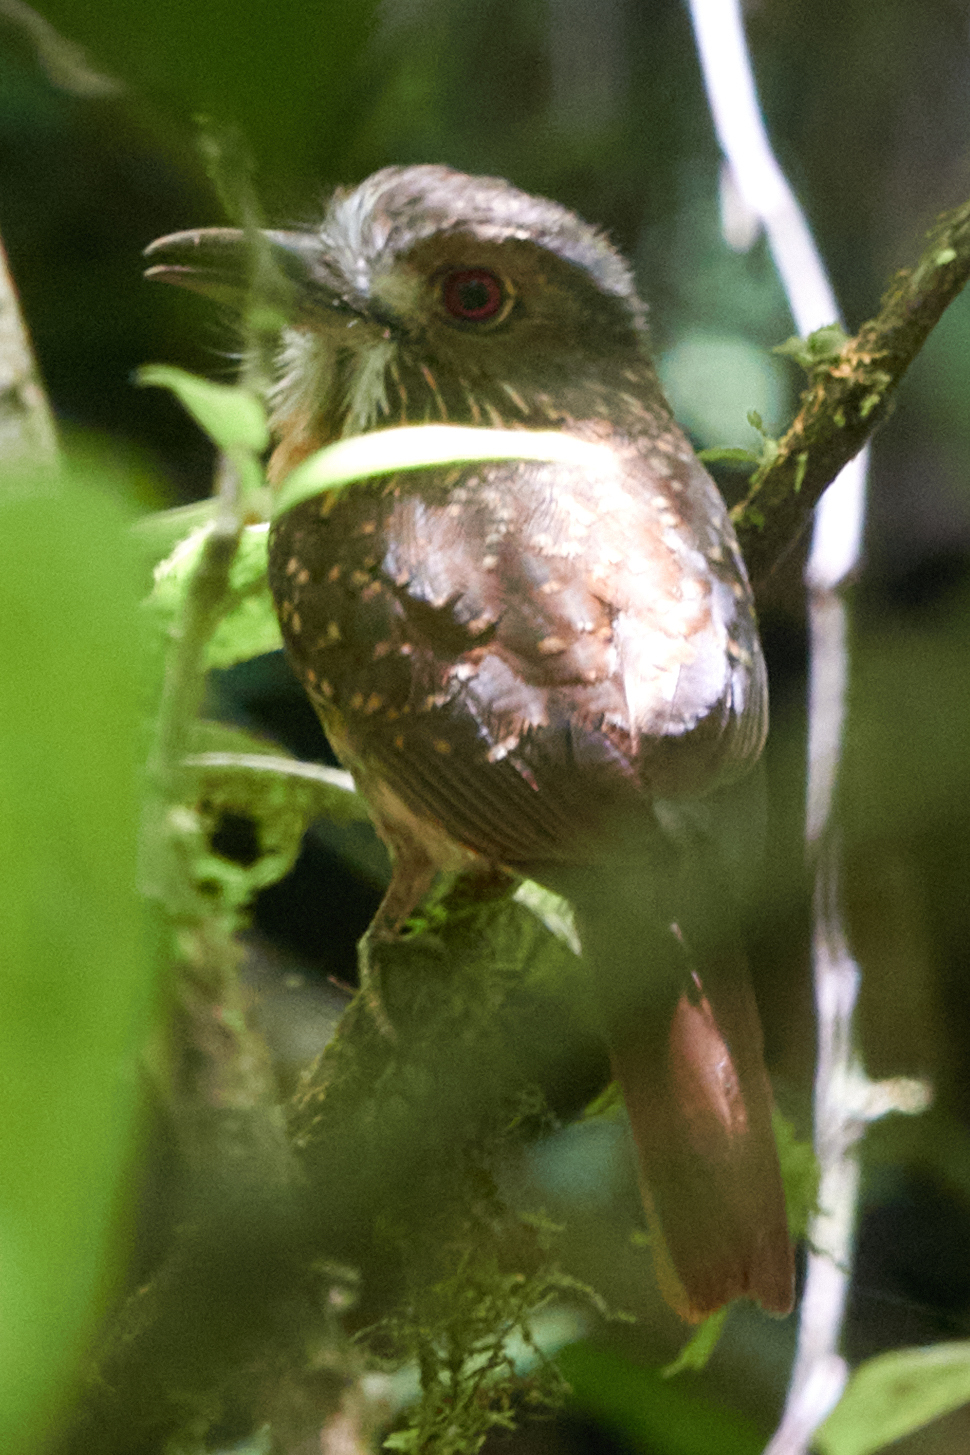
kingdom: Animalia
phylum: Chordata
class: Aves
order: Piciformes
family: Bucconidae
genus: Malacoptila
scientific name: Malacoptila panamensis
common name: White-whiskered puffbird
